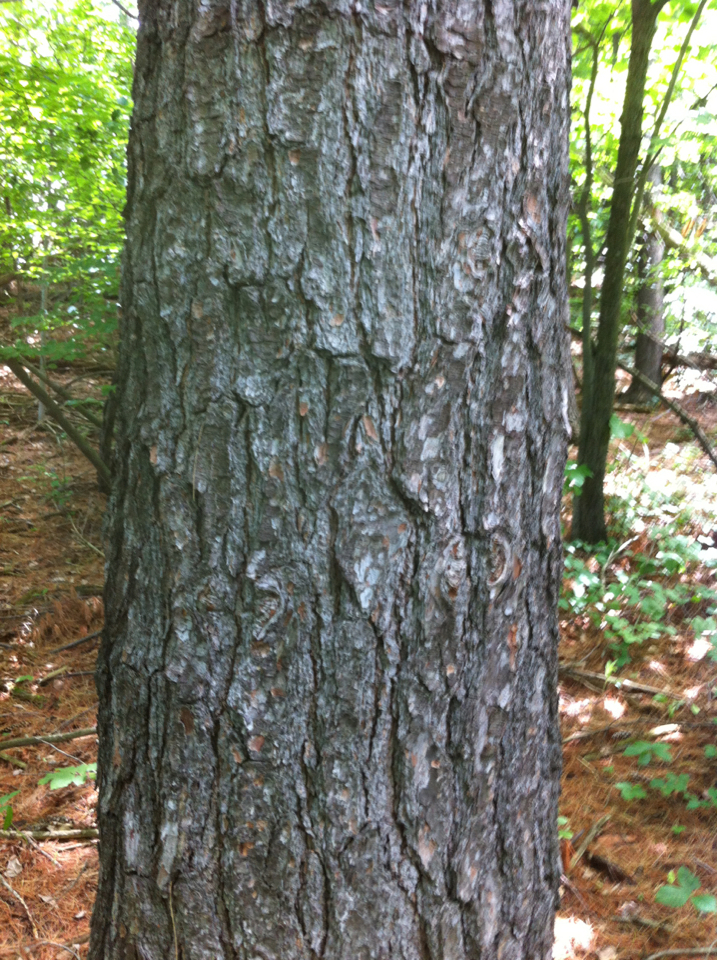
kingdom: Plantae
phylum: Tracheophyta
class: Pinopsida
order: Pinales
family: Pinaceae
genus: Pinus
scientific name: Pinus strobus
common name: Weymouth pine
